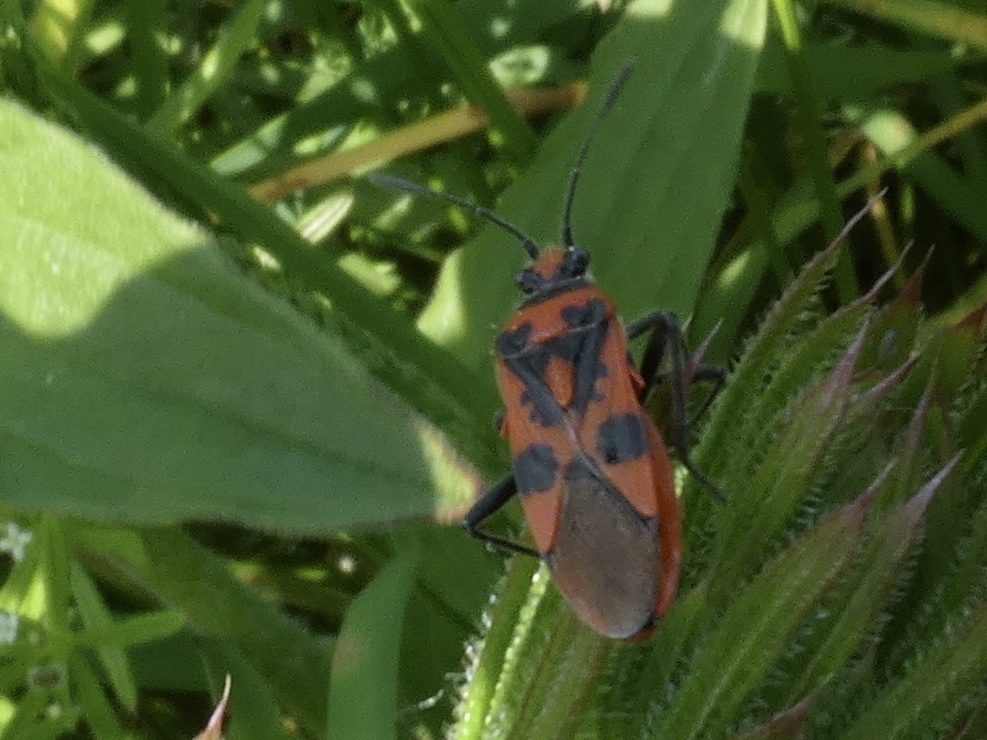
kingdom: Animalia
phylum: Arthropoda
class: Insecta
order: Hemiptera
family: Rhopalidae
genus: Corizus
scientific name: Corizus hyoscyami
